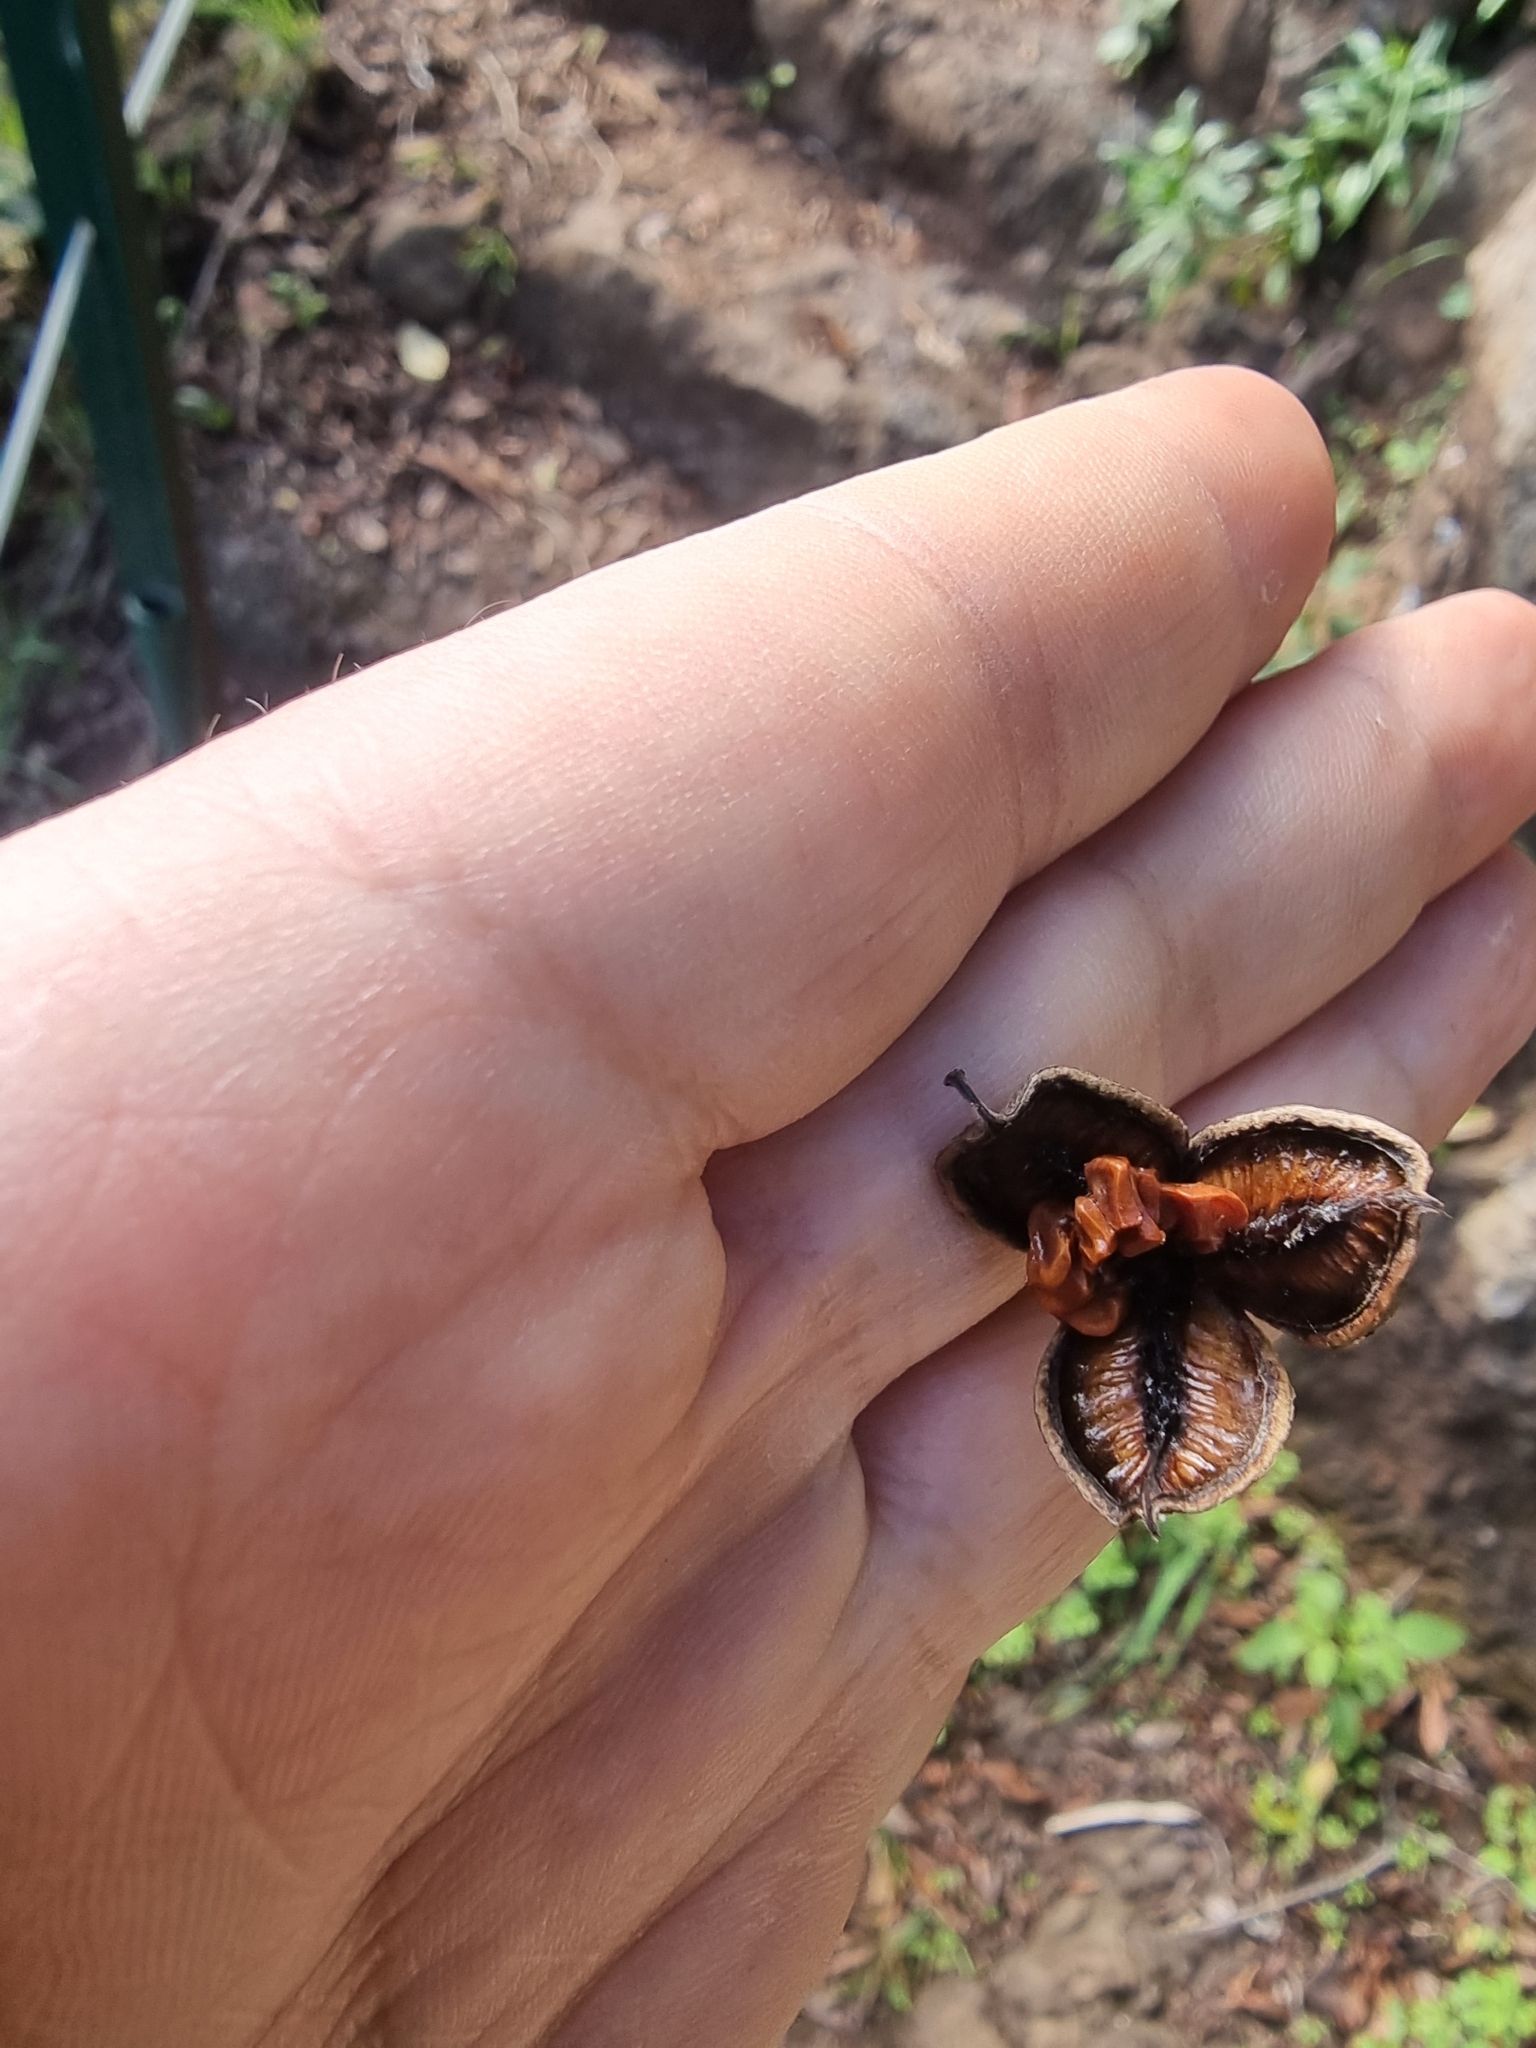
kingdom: Plantae
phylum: Tracheophyta
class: Magnoliopsida
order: Apiales
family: Pittosporaceae
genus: Pittosporum
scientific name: Pittosporum undulatum
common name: Australian cheesewood
